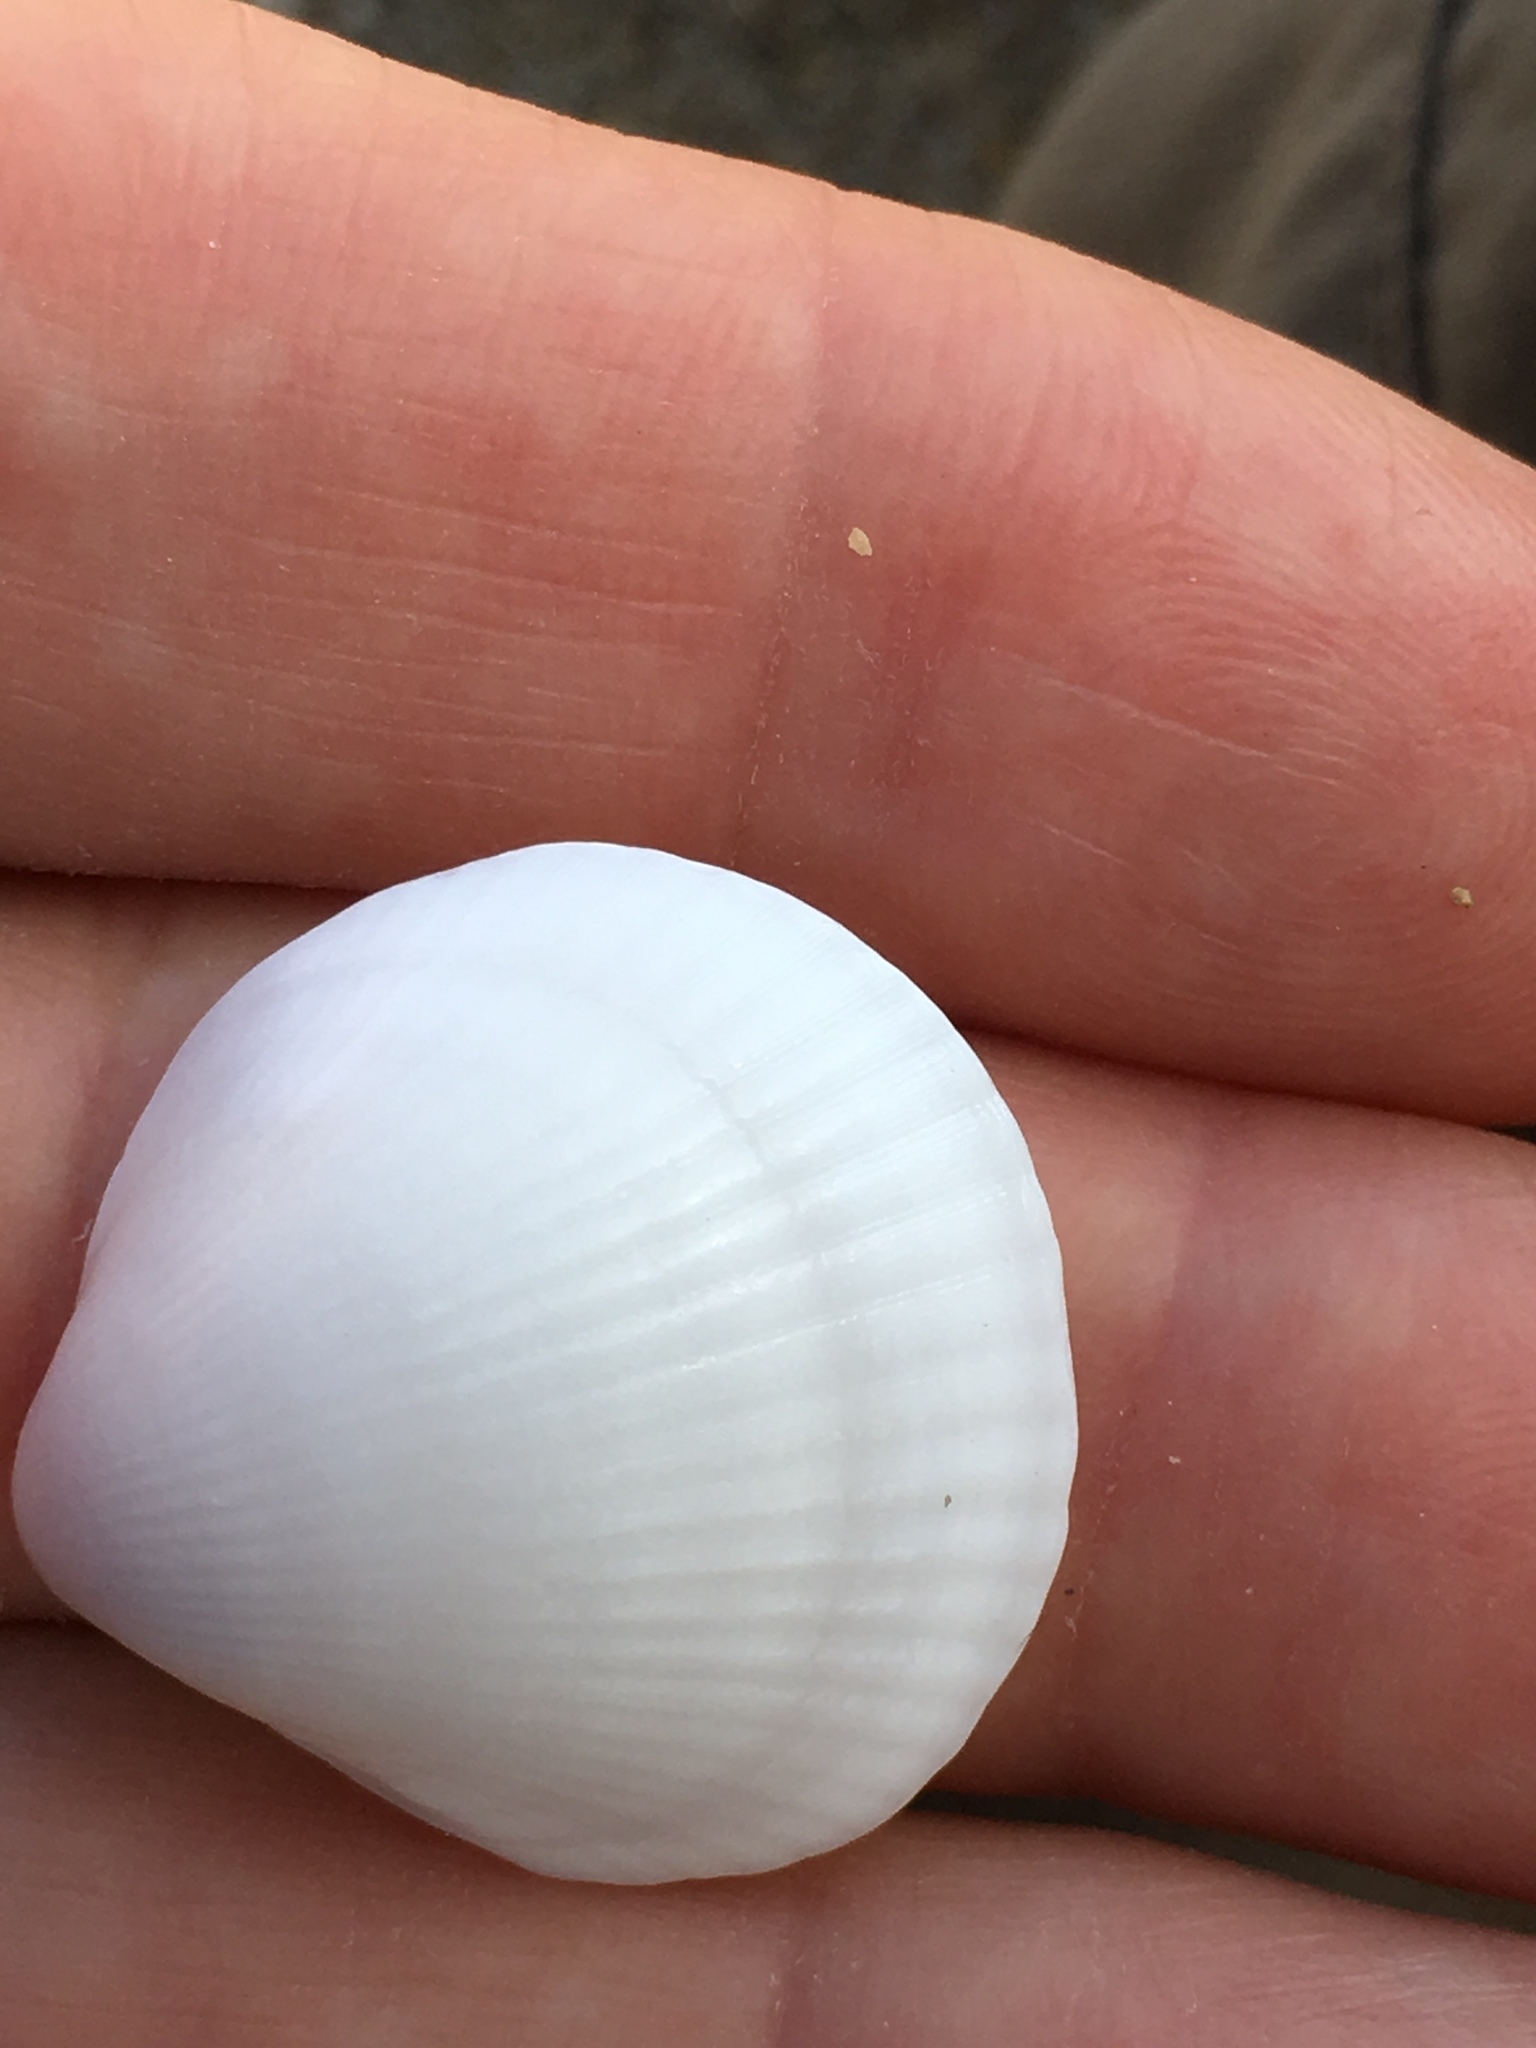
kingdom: Animalia
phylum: Mollusca
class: Bivalvia
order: Arcida
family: Glycymerididae
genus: Glycymeris
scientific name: Glycymeris spectralis
